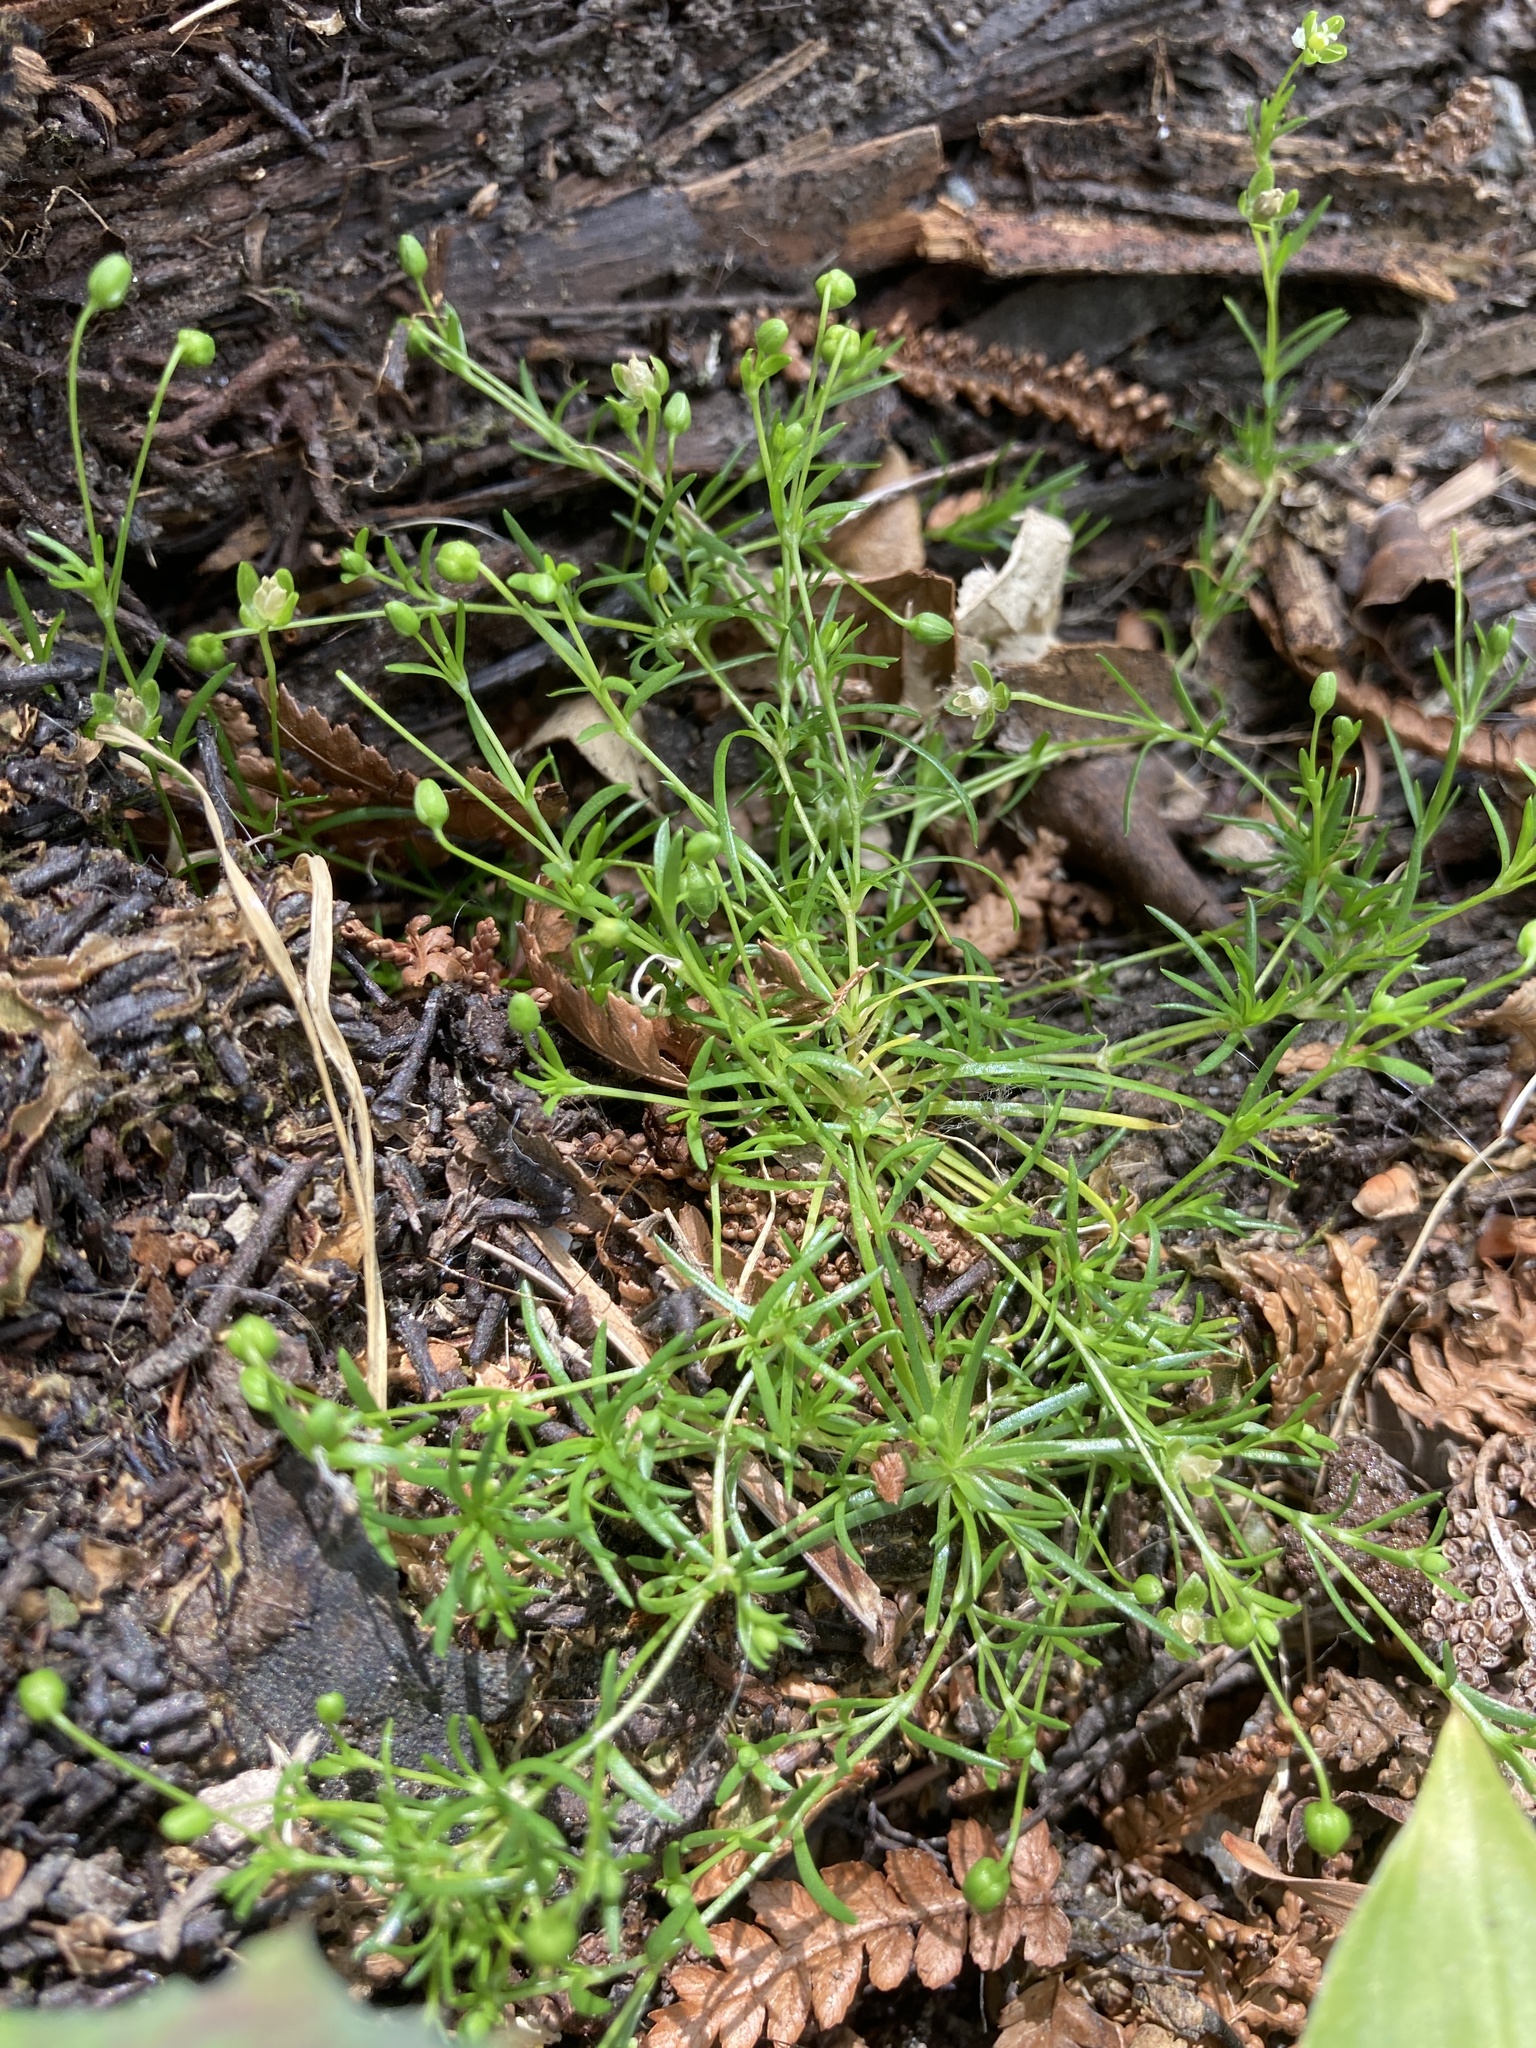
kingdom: Plantae
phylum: Tracheophyta
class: Magnoliopsida
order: Caryophyllales
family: Caryophyllaceae
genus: Sagina
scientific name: Sagina procumbens
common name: Procumbent pearlwort
